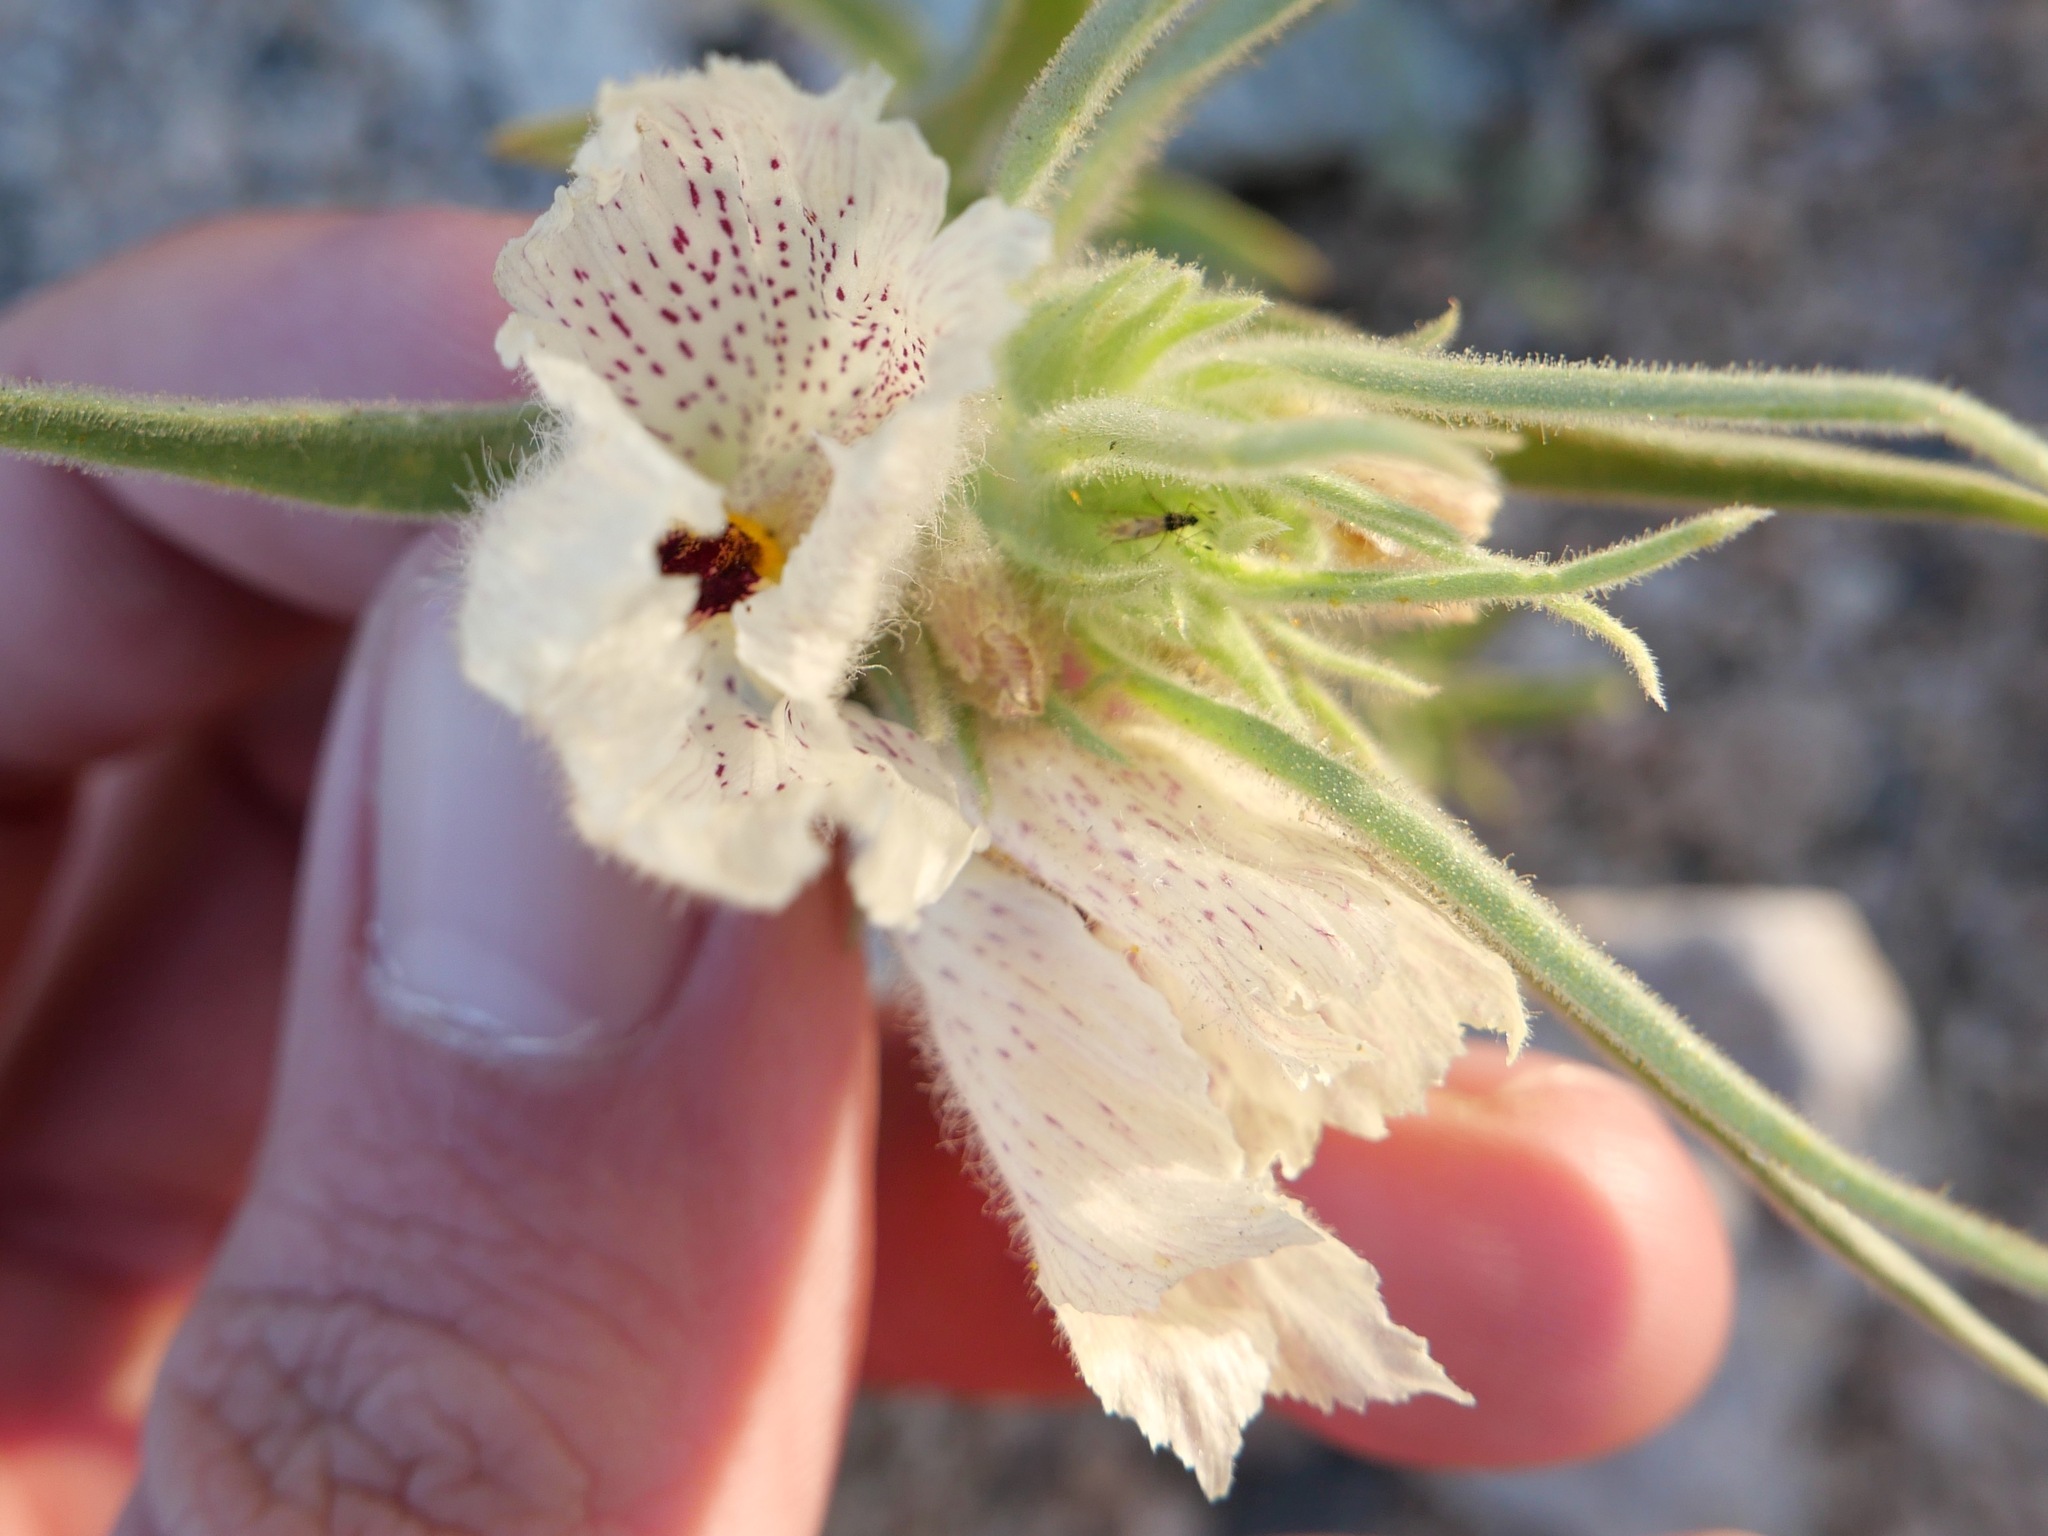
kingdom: Plantae
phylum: Tracheophyta
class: Magnoliopsida
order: Lamiales
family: Plantaginaceae
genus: Mohavea
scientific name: Mohavea confertiflora
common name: Ghost flower
